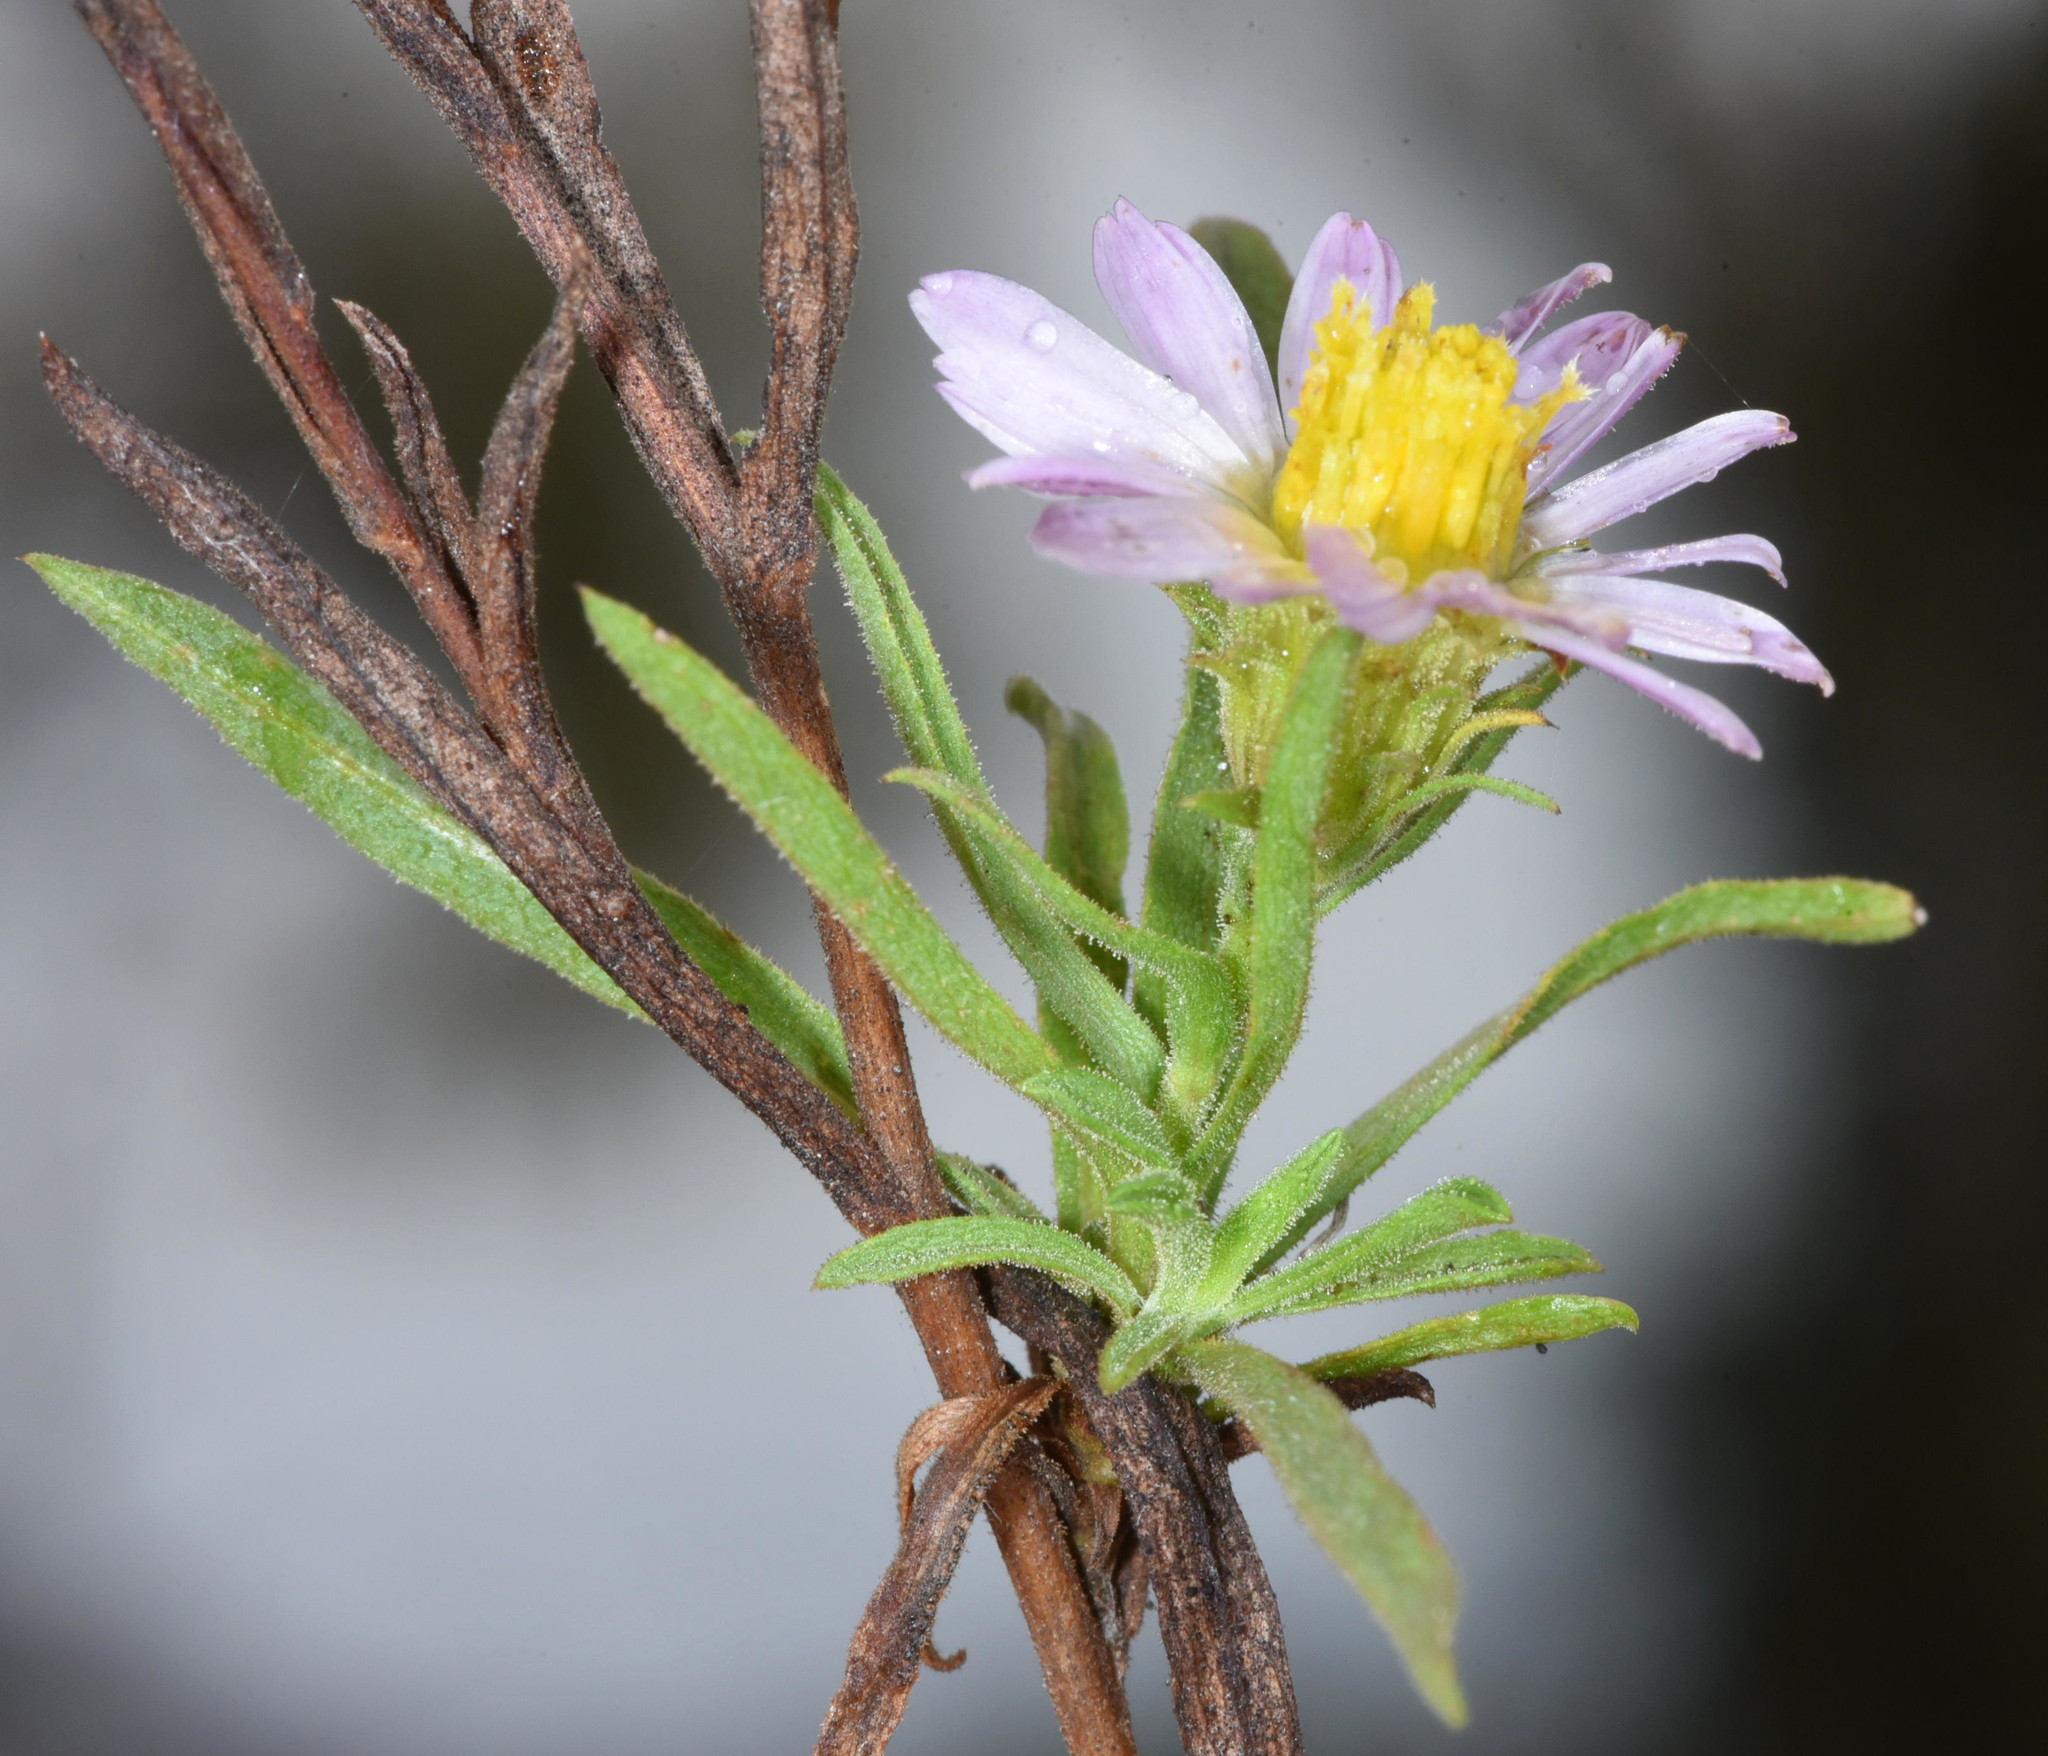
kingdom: Plantae
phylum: Tracheophyta
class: Magnoliopsida
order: Asterales
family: Asteraceae
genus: Erigeron
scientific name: Erigeron foliosus
